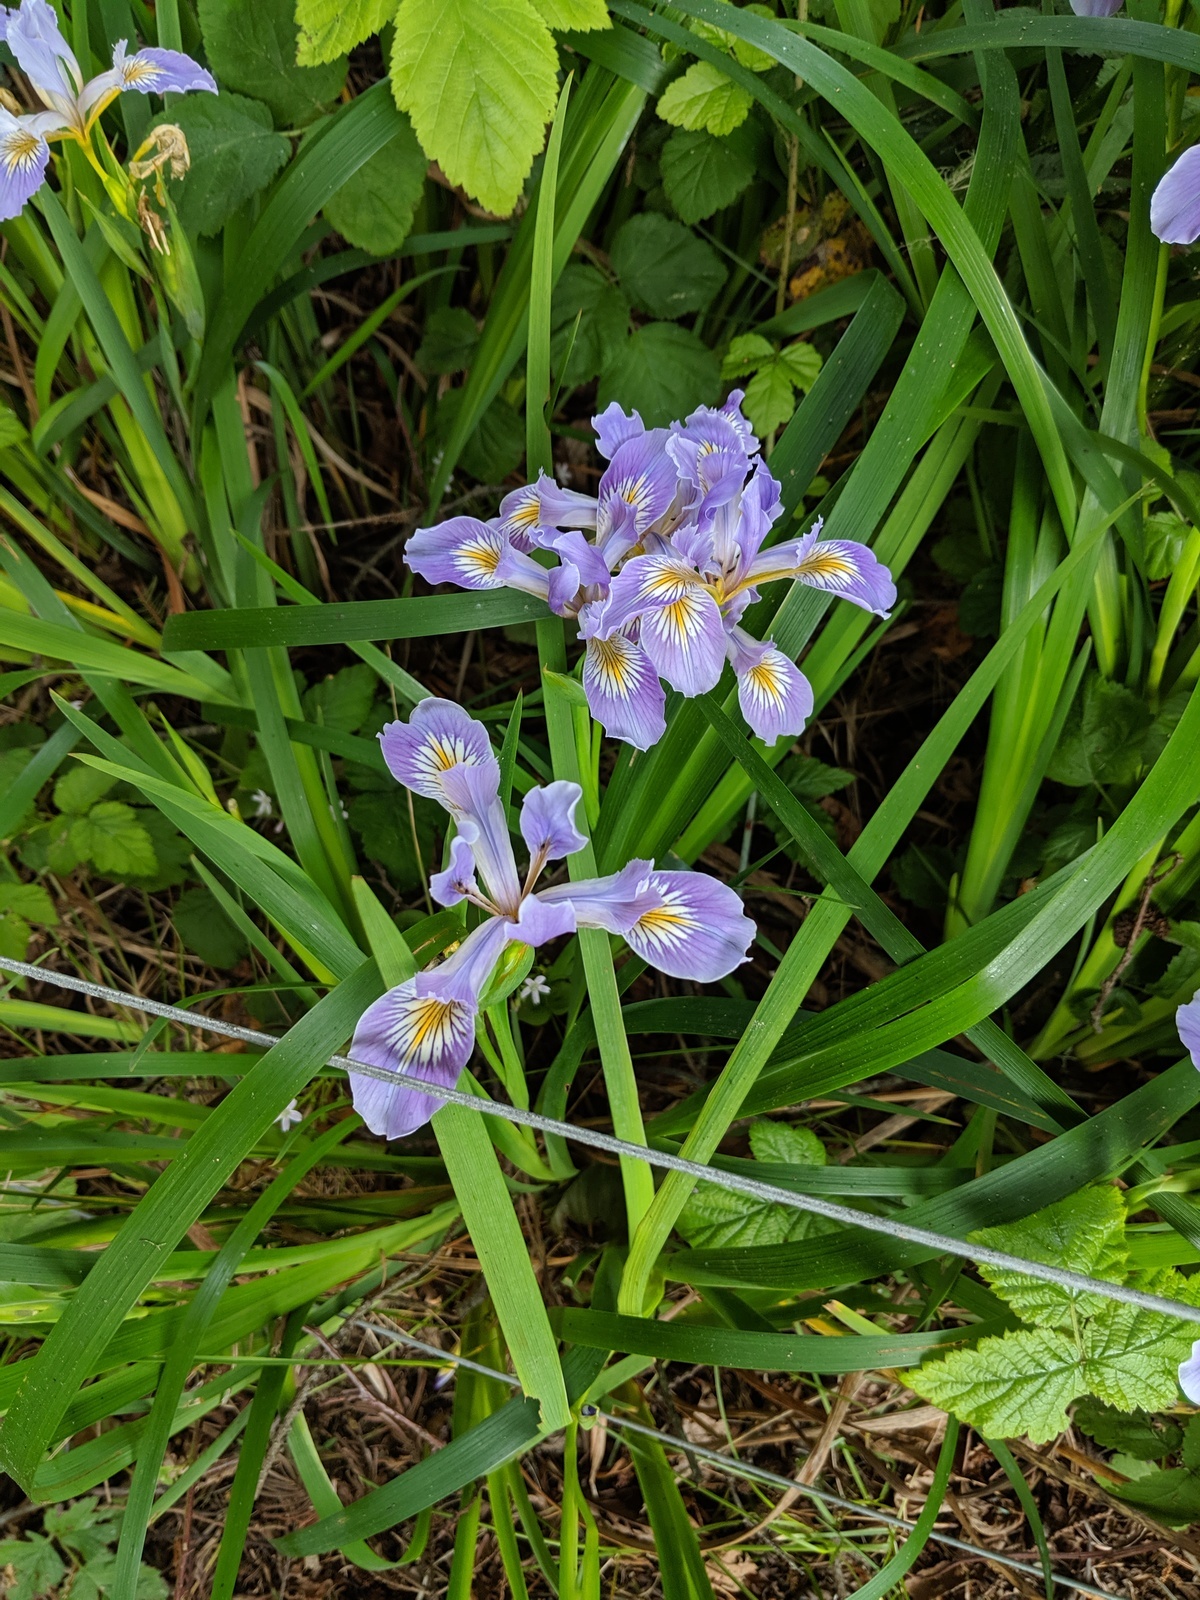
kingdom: Plantae
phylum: Tracheophyta
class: Liliopsida
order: Asparagales
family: Iridaceae
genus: Iris
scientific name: Iris douglasiana
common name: Marin iris
